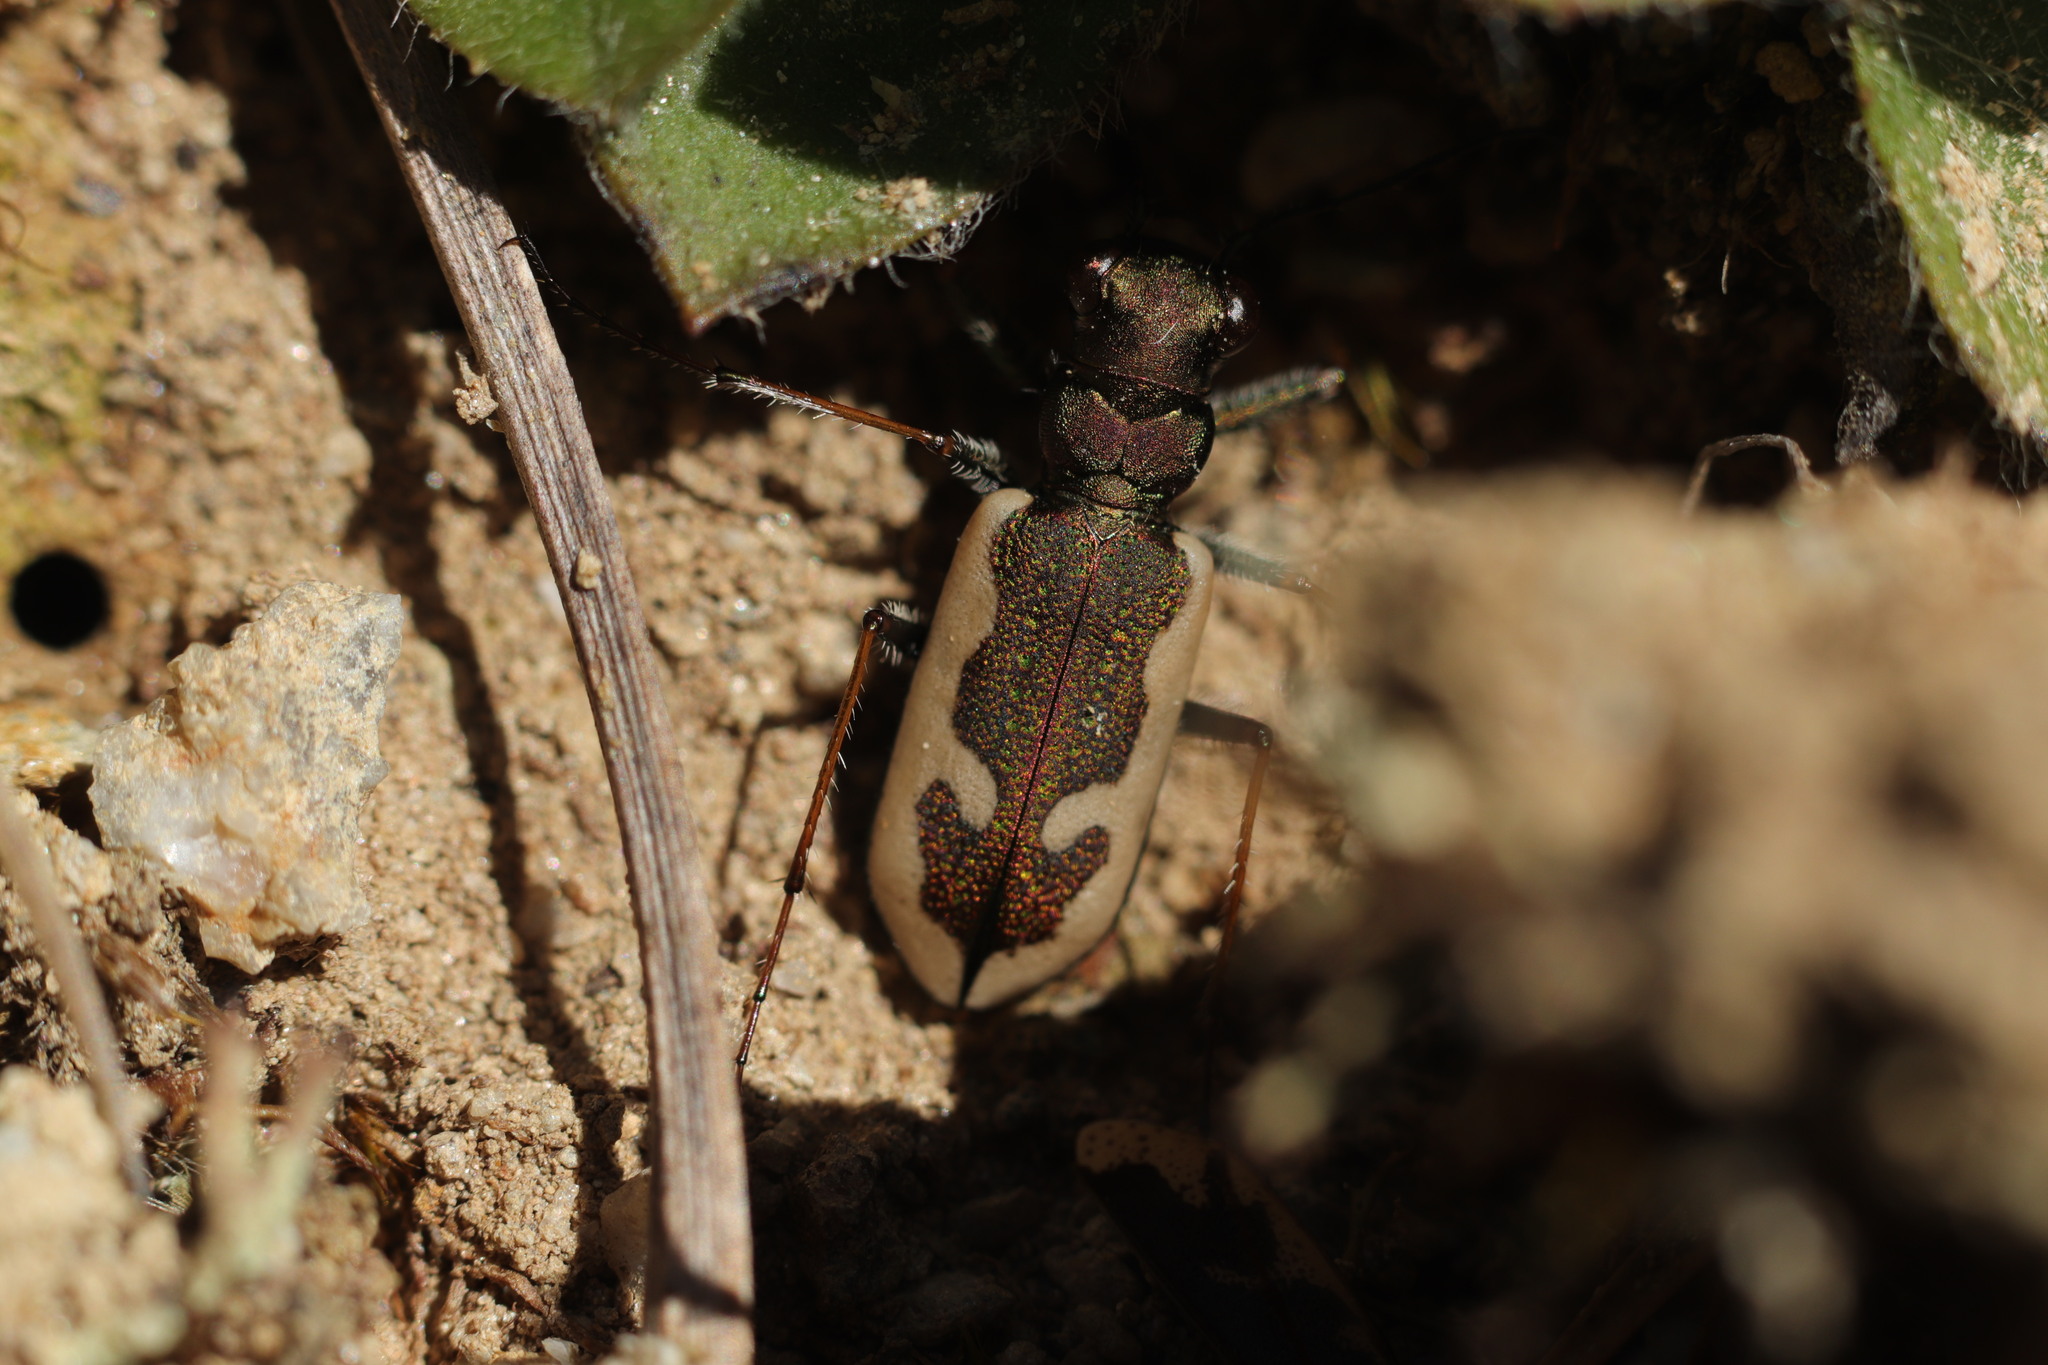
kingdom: Animalia
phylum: Arthropoda
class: Insecta
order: Coleoptera
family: Carabidae
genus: Neocicindela
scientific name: Neocicindela latecincta
